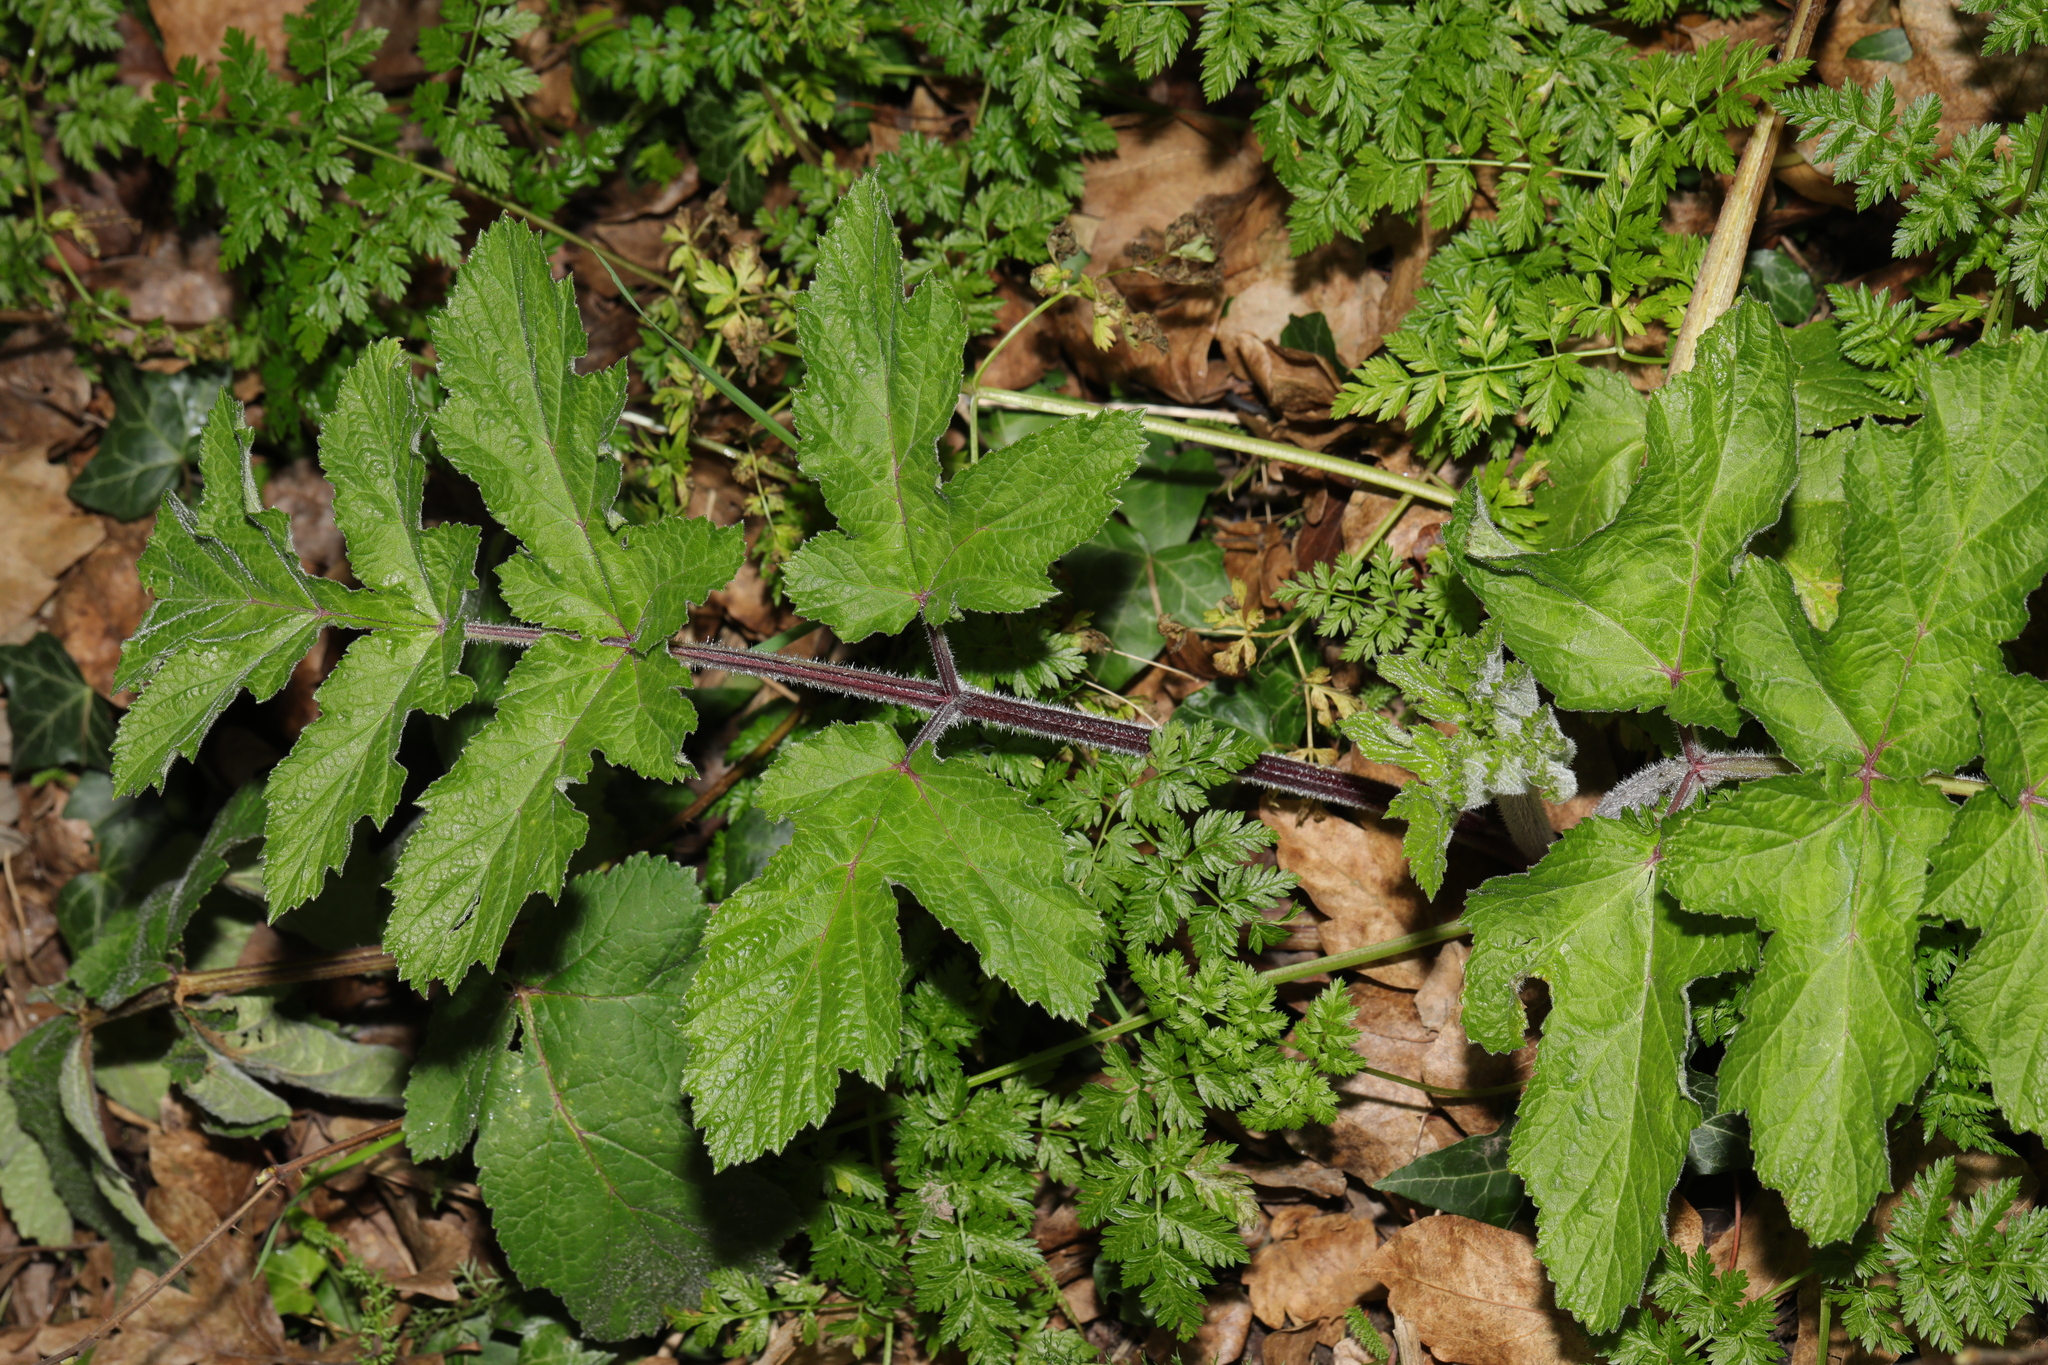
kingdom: Plantae
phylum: Tracheophyta
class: Magnoliopsida
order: Apiales
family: Apiaceae
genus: Heracleum
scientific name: Heracleum sphondylium
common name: Hogweed
